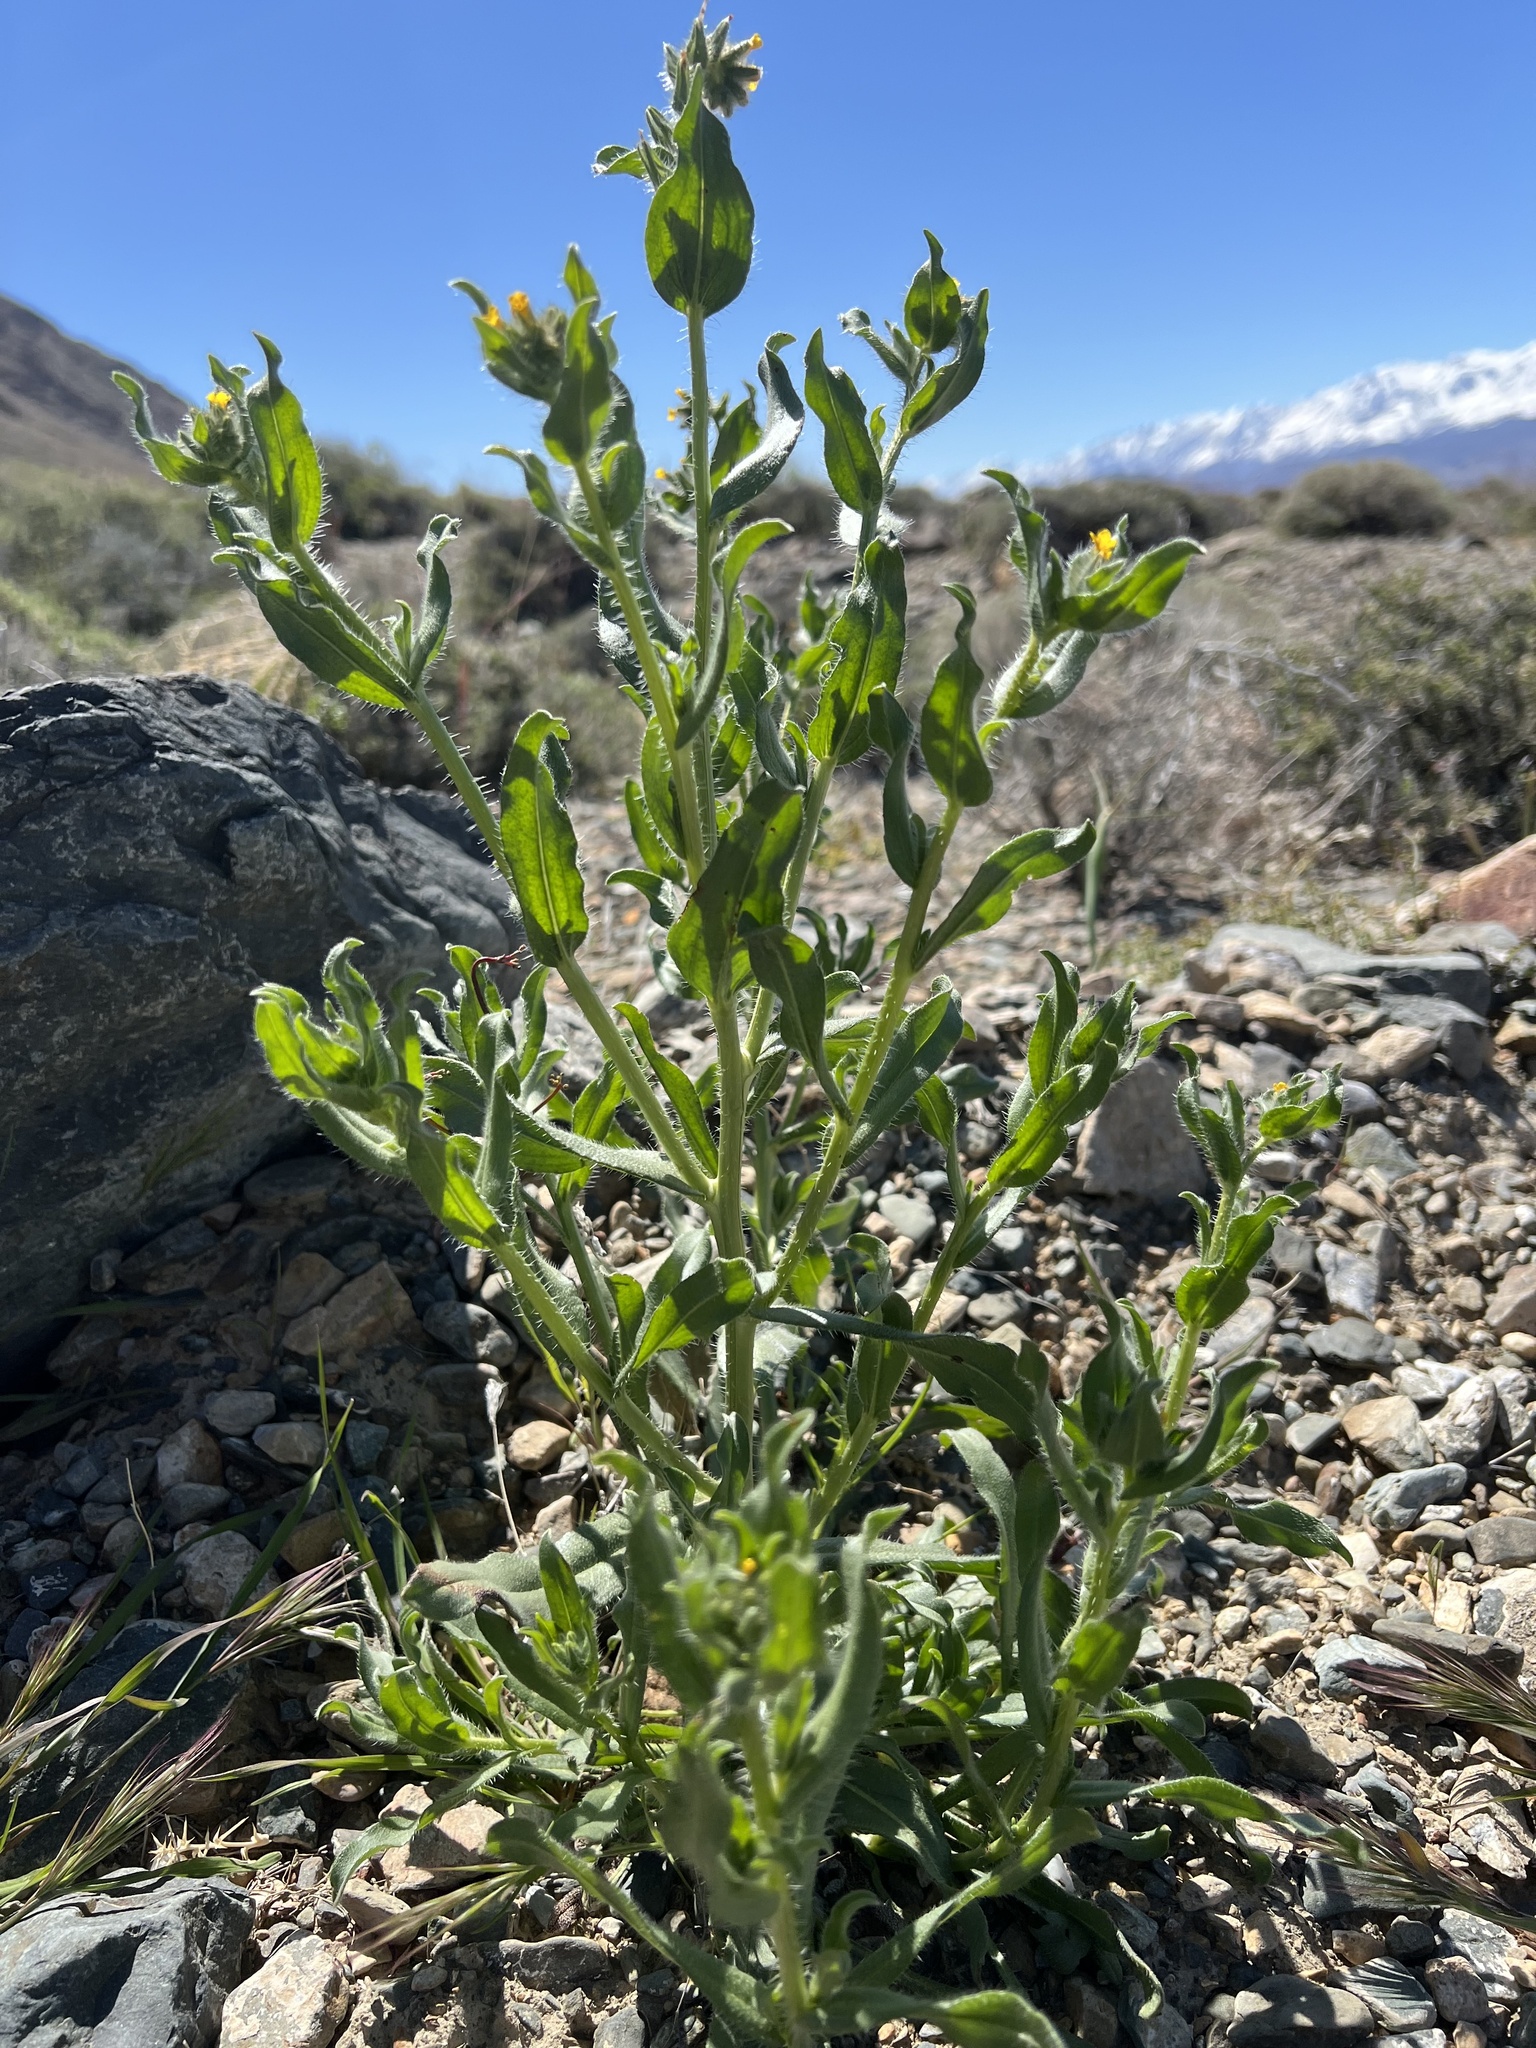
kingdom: Plantae
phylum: Tracheophyta
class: Magnoliopsida
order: Boraginales
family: Boraginaceae
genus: Amsinckia
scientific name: Amsinckia tessellata
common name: Tessellate fiddleneck
